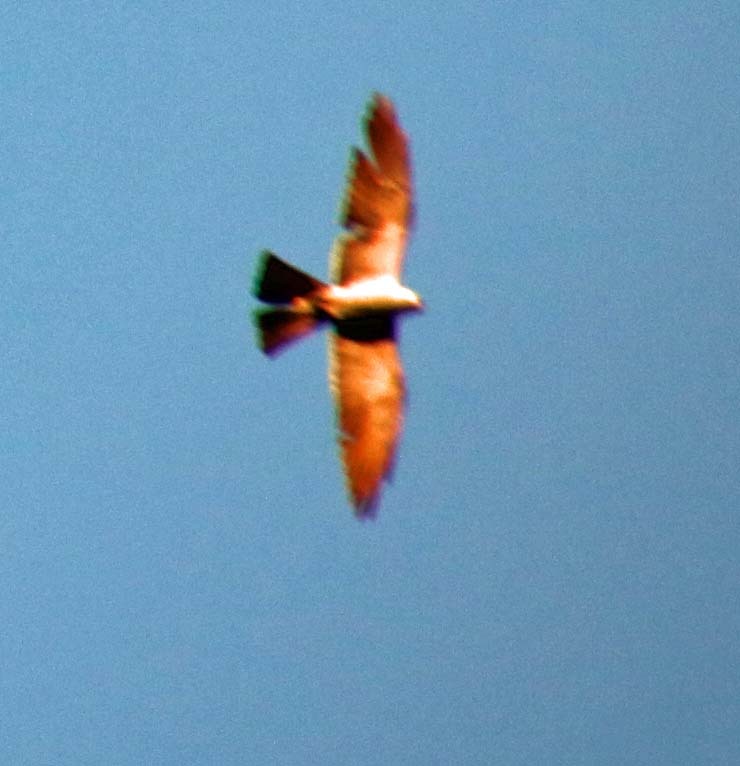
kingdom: Animalia
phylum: Chordata
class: Aves
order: Accipitriformes
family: Accipitridae
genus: Ictinia
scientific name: Ictinia mississippiensis
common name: Mississippi kite
